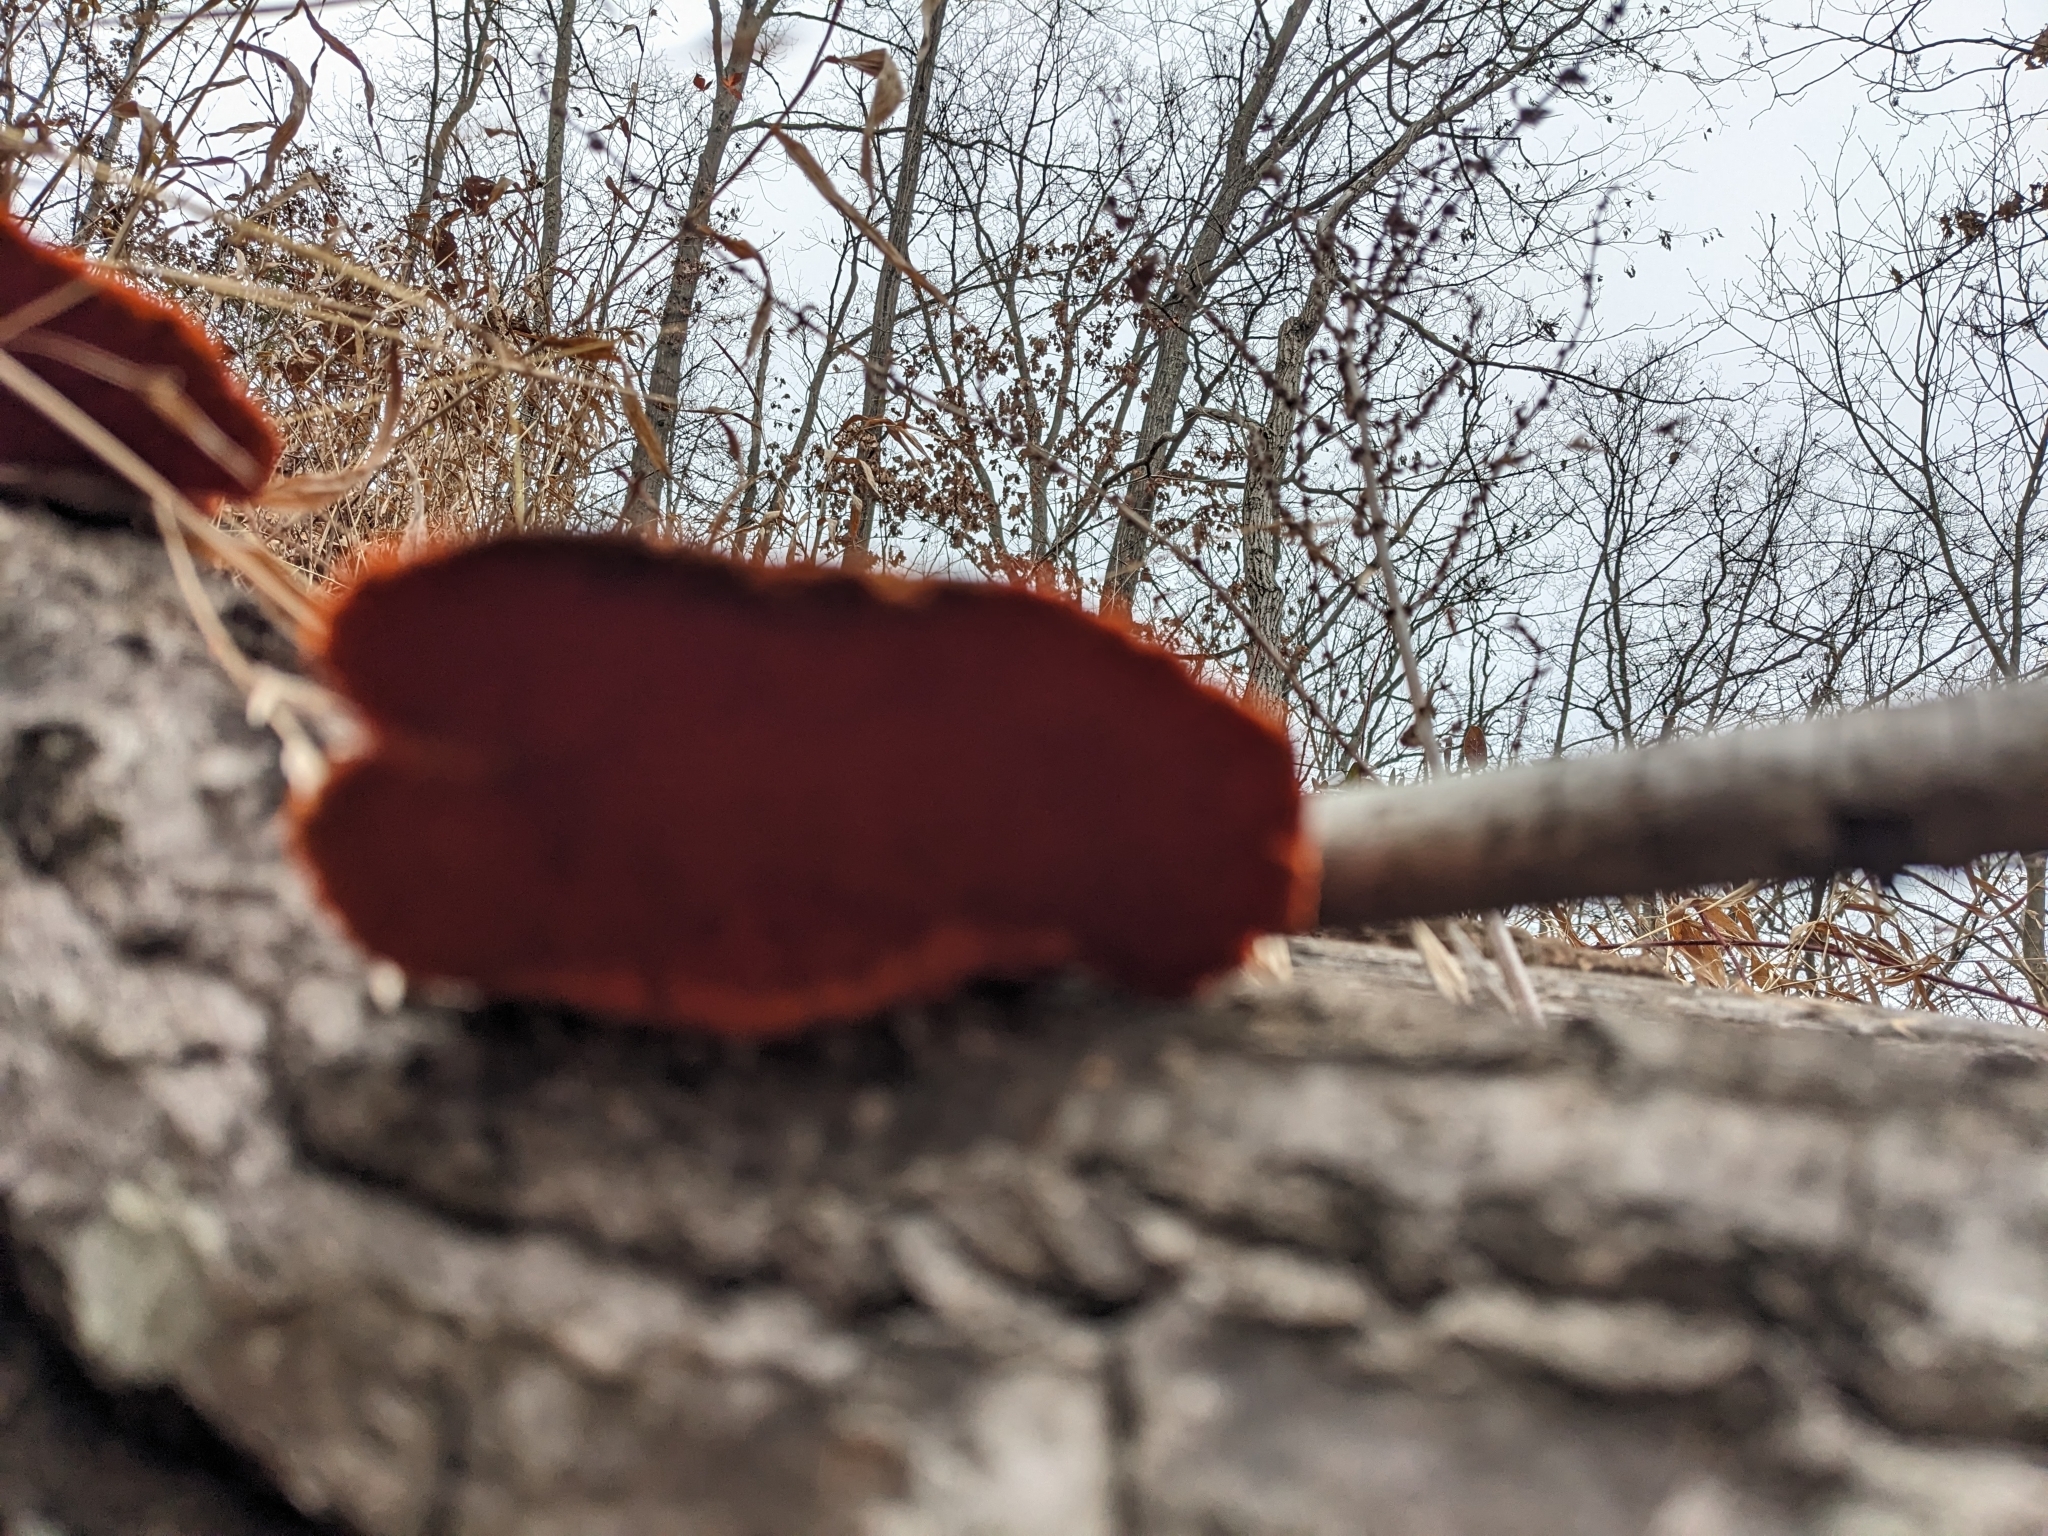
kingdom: Fungi
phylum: Basidiomycota
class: Agaricomycetes
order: Polyporales
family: Polyporaceae
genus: Trametes
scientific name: Trametes cinnabarina
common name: Northern cinnabar polypore
